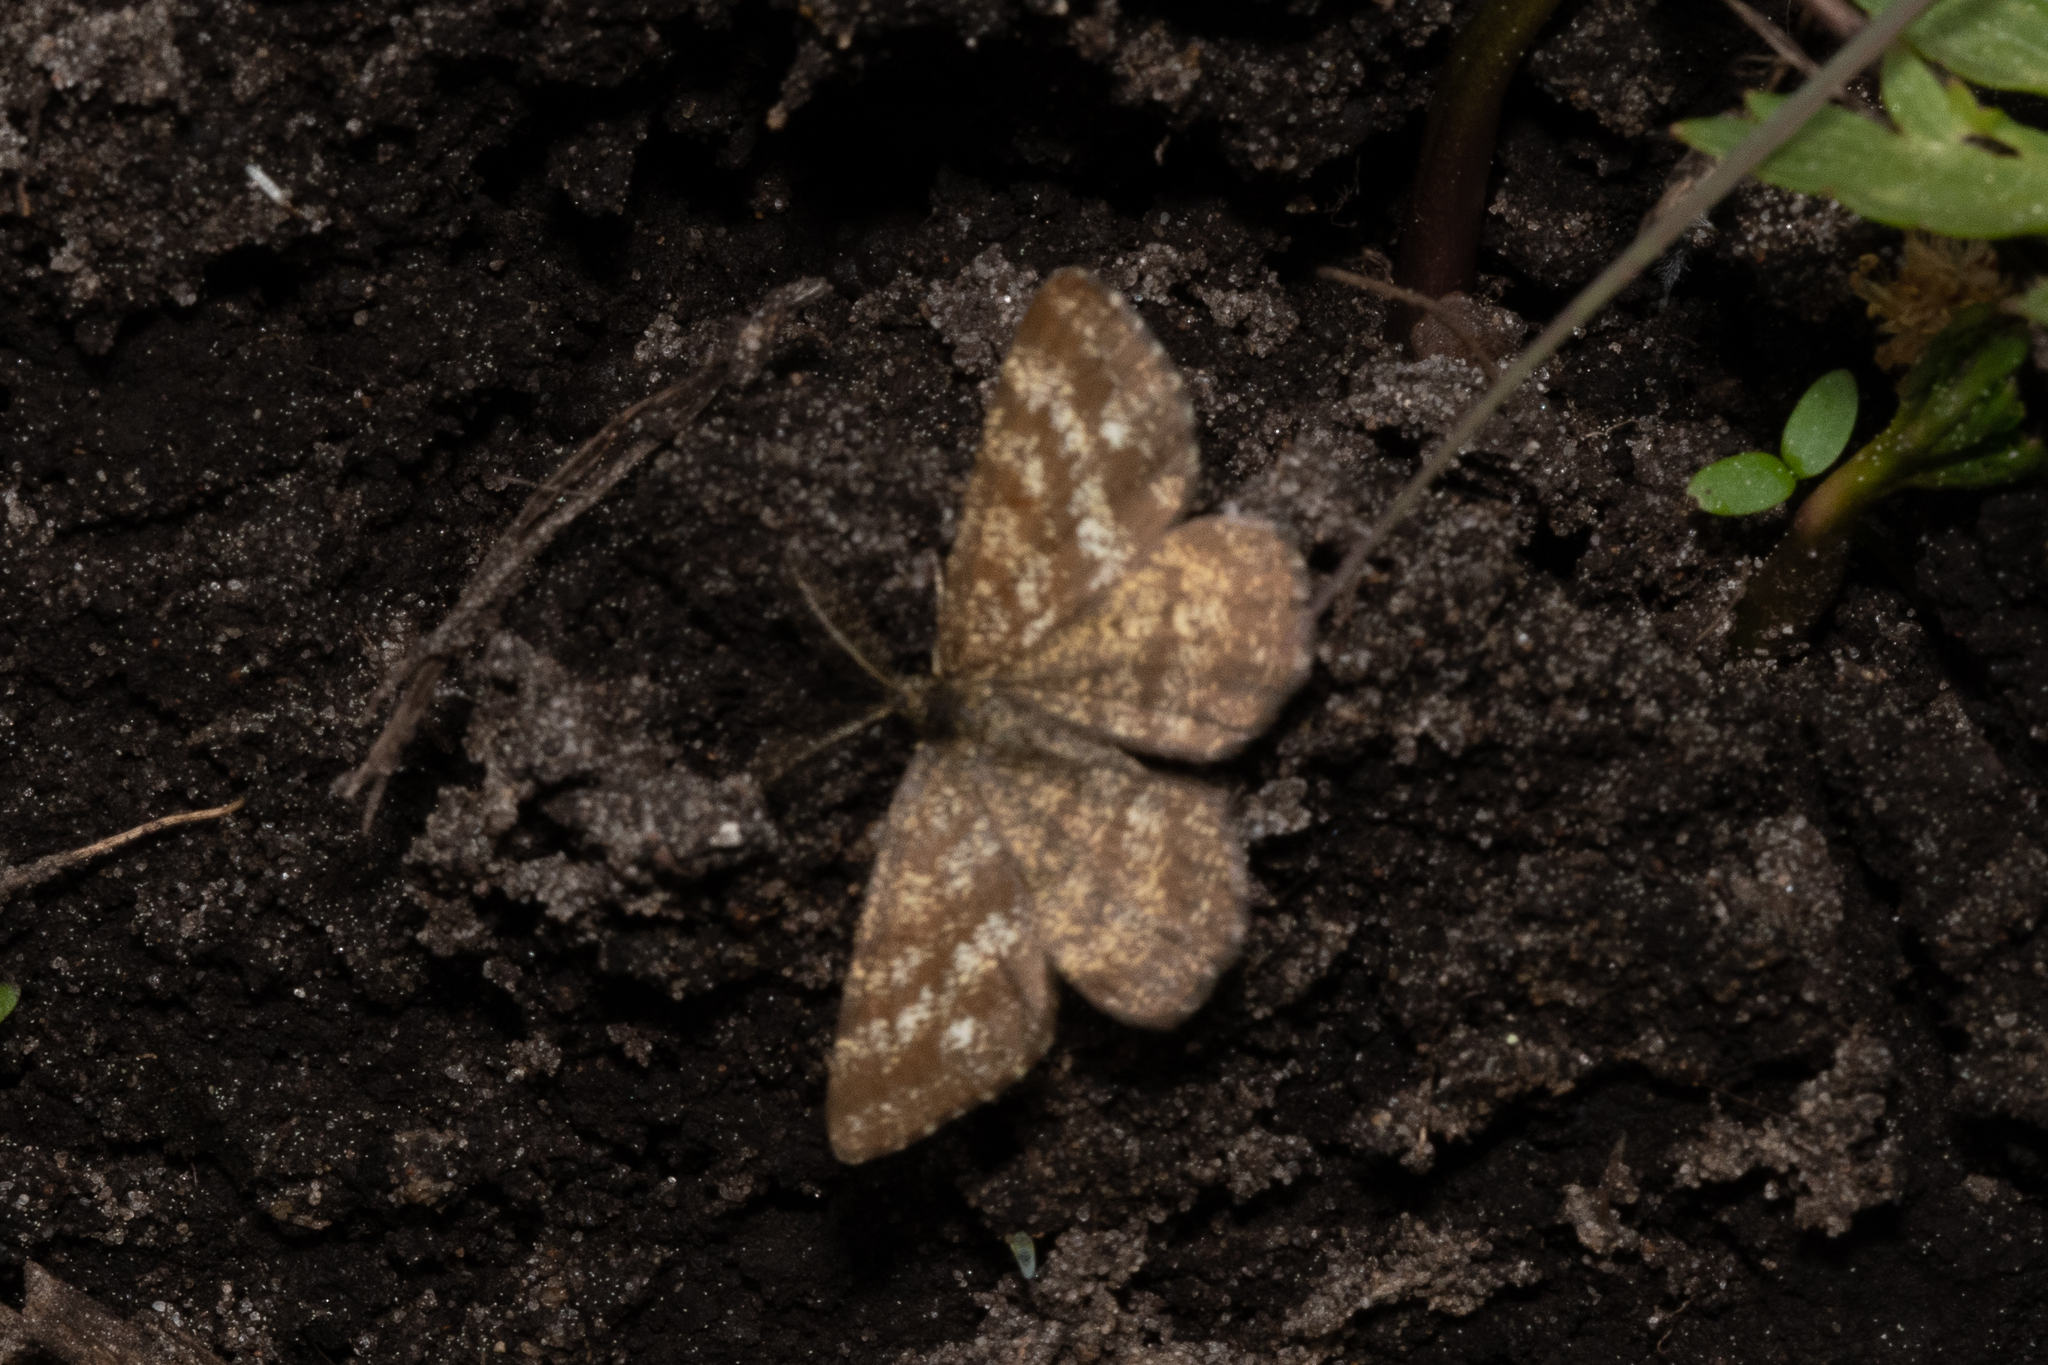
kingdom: Animalia
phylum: Arthropoda
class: Insecta
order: Lepidoptera
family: Geometridae
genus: Ematurga
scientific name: Ematurga atomaria
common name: Common heath
